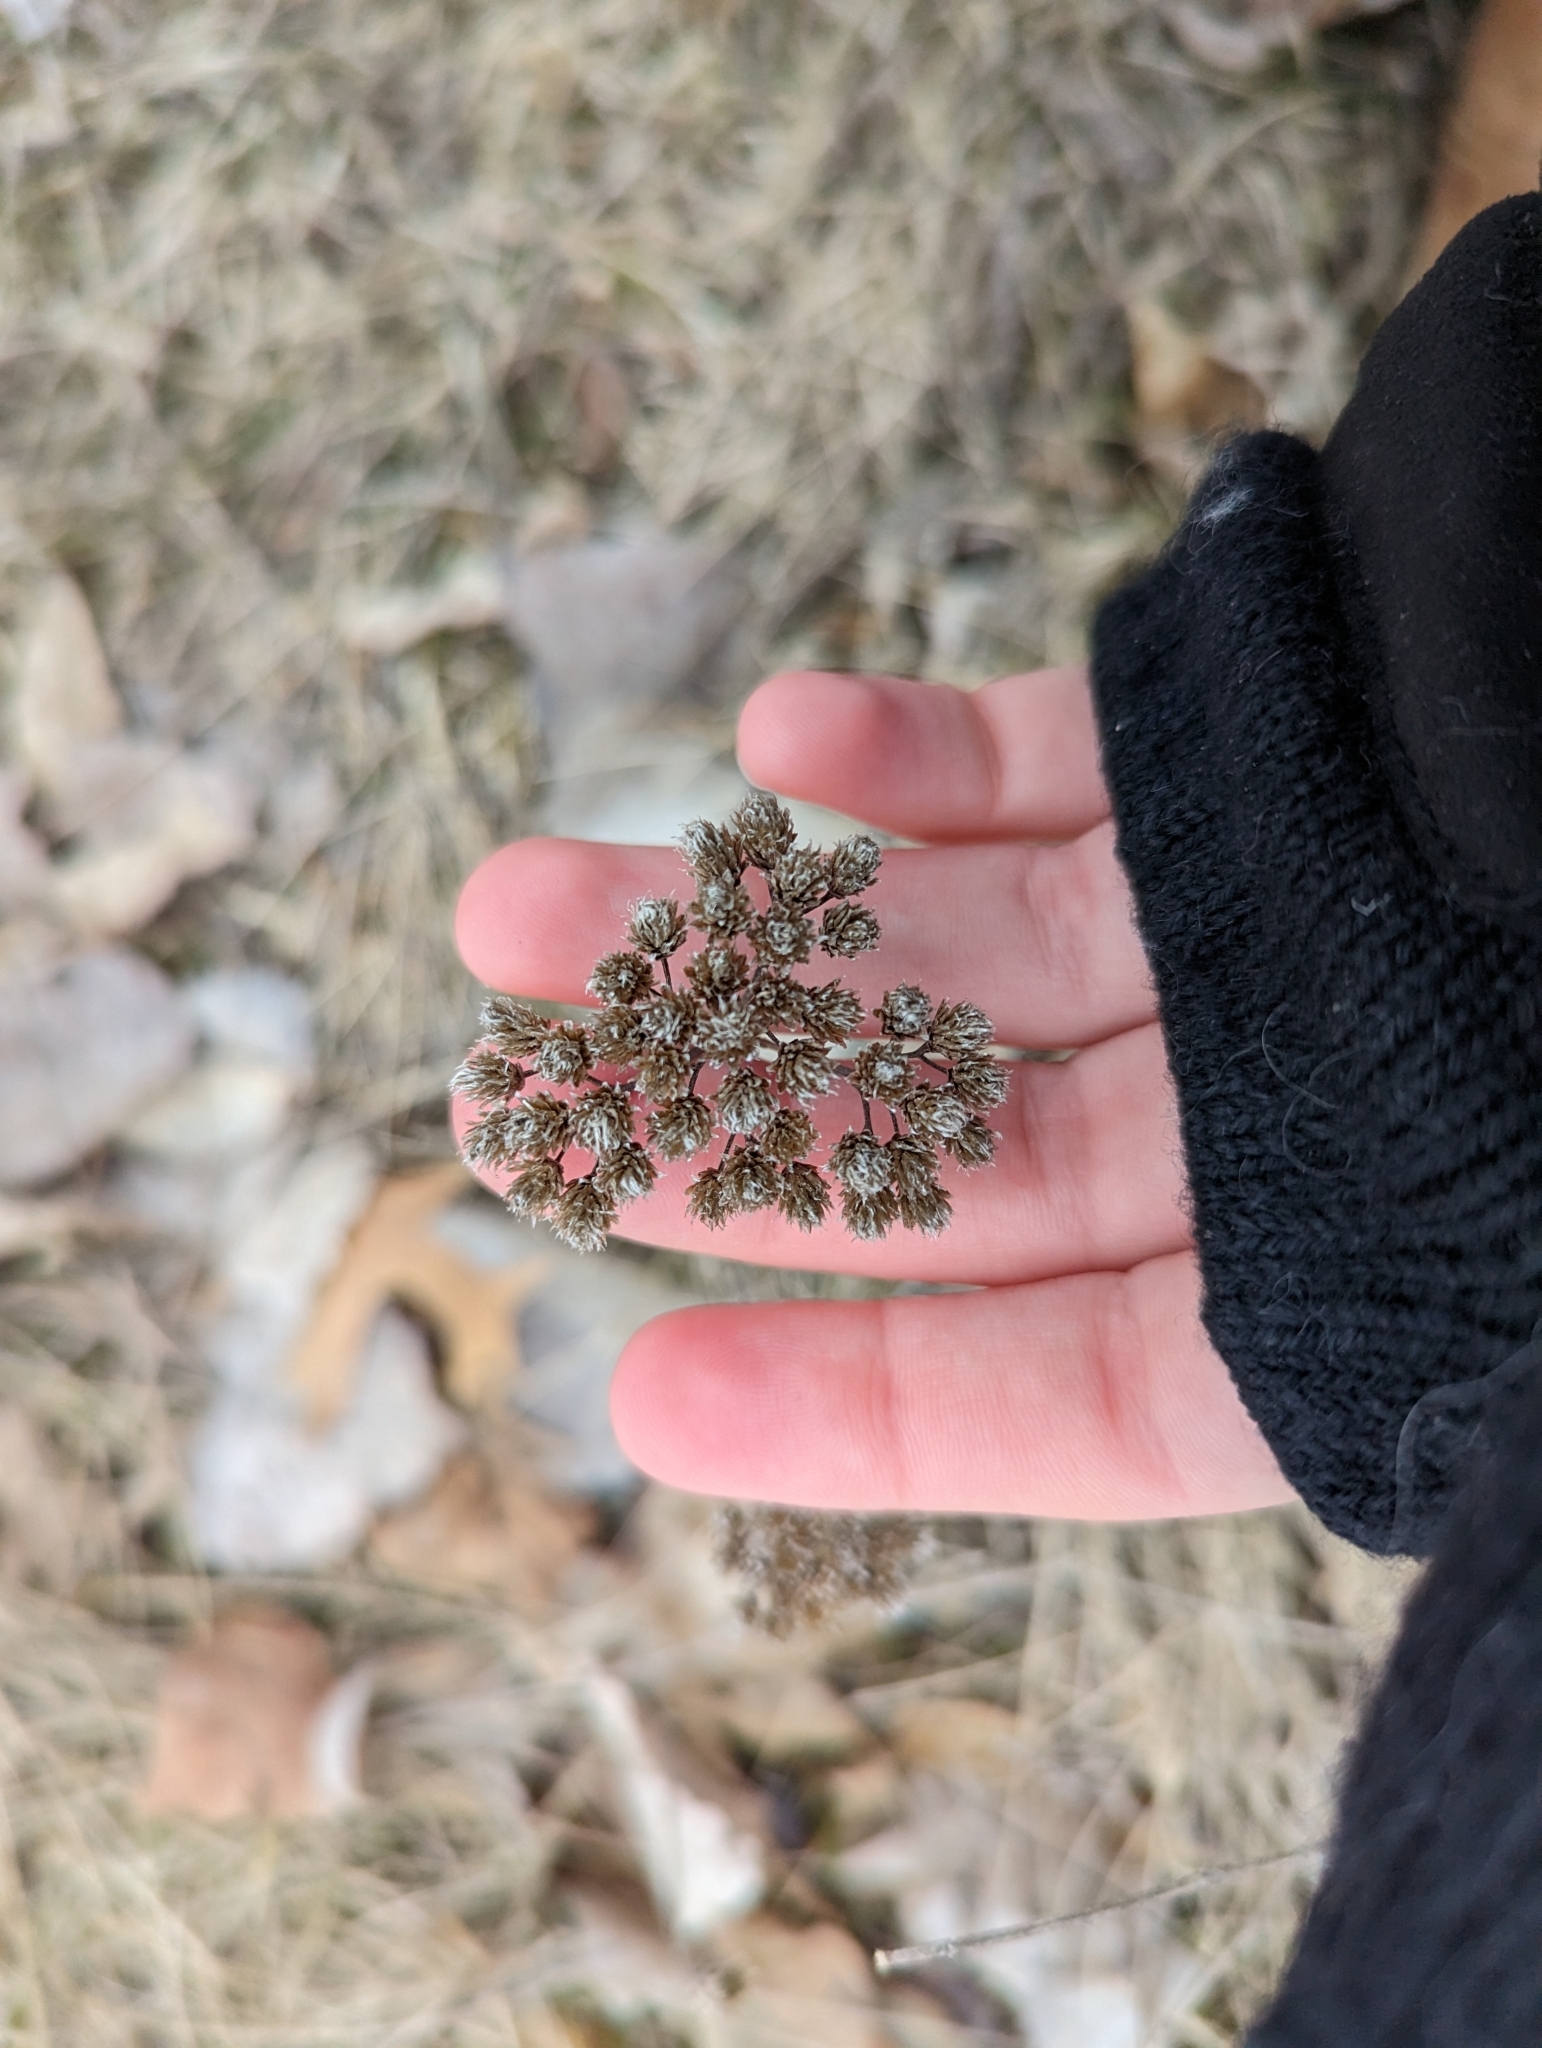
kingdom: Plantae
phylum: Tracheophyta
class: Magnoliopsida
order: Asterales
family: Asteraceae
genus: Achillea
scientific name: Achillea millefolium
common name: Yarrow
